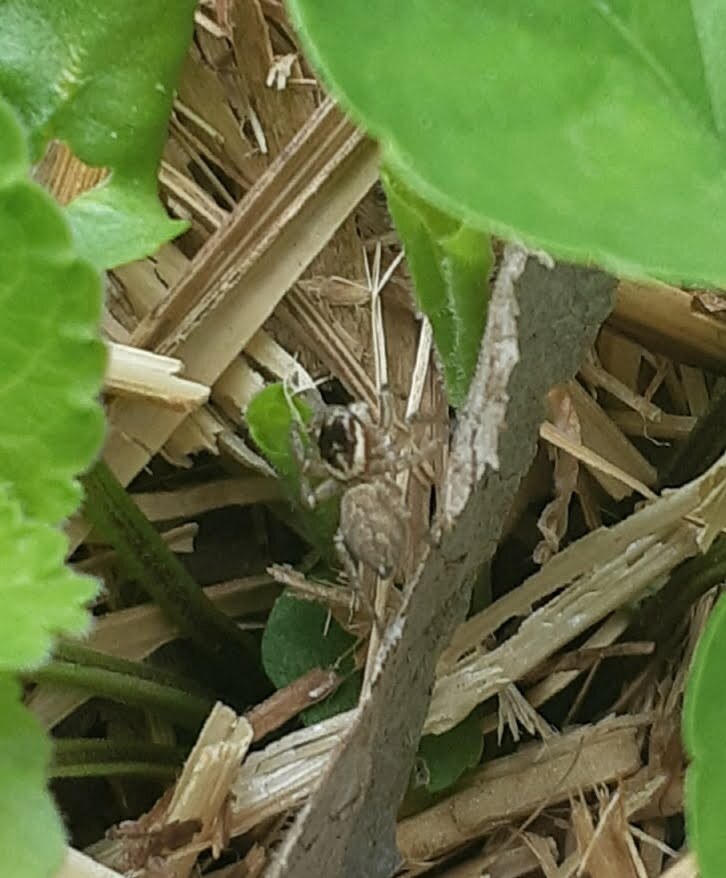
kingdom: Animalia
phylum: Arthropoda
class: Arachnida
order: Araneae
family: Salticidae
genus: Maratus
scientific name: Maratus griseus
